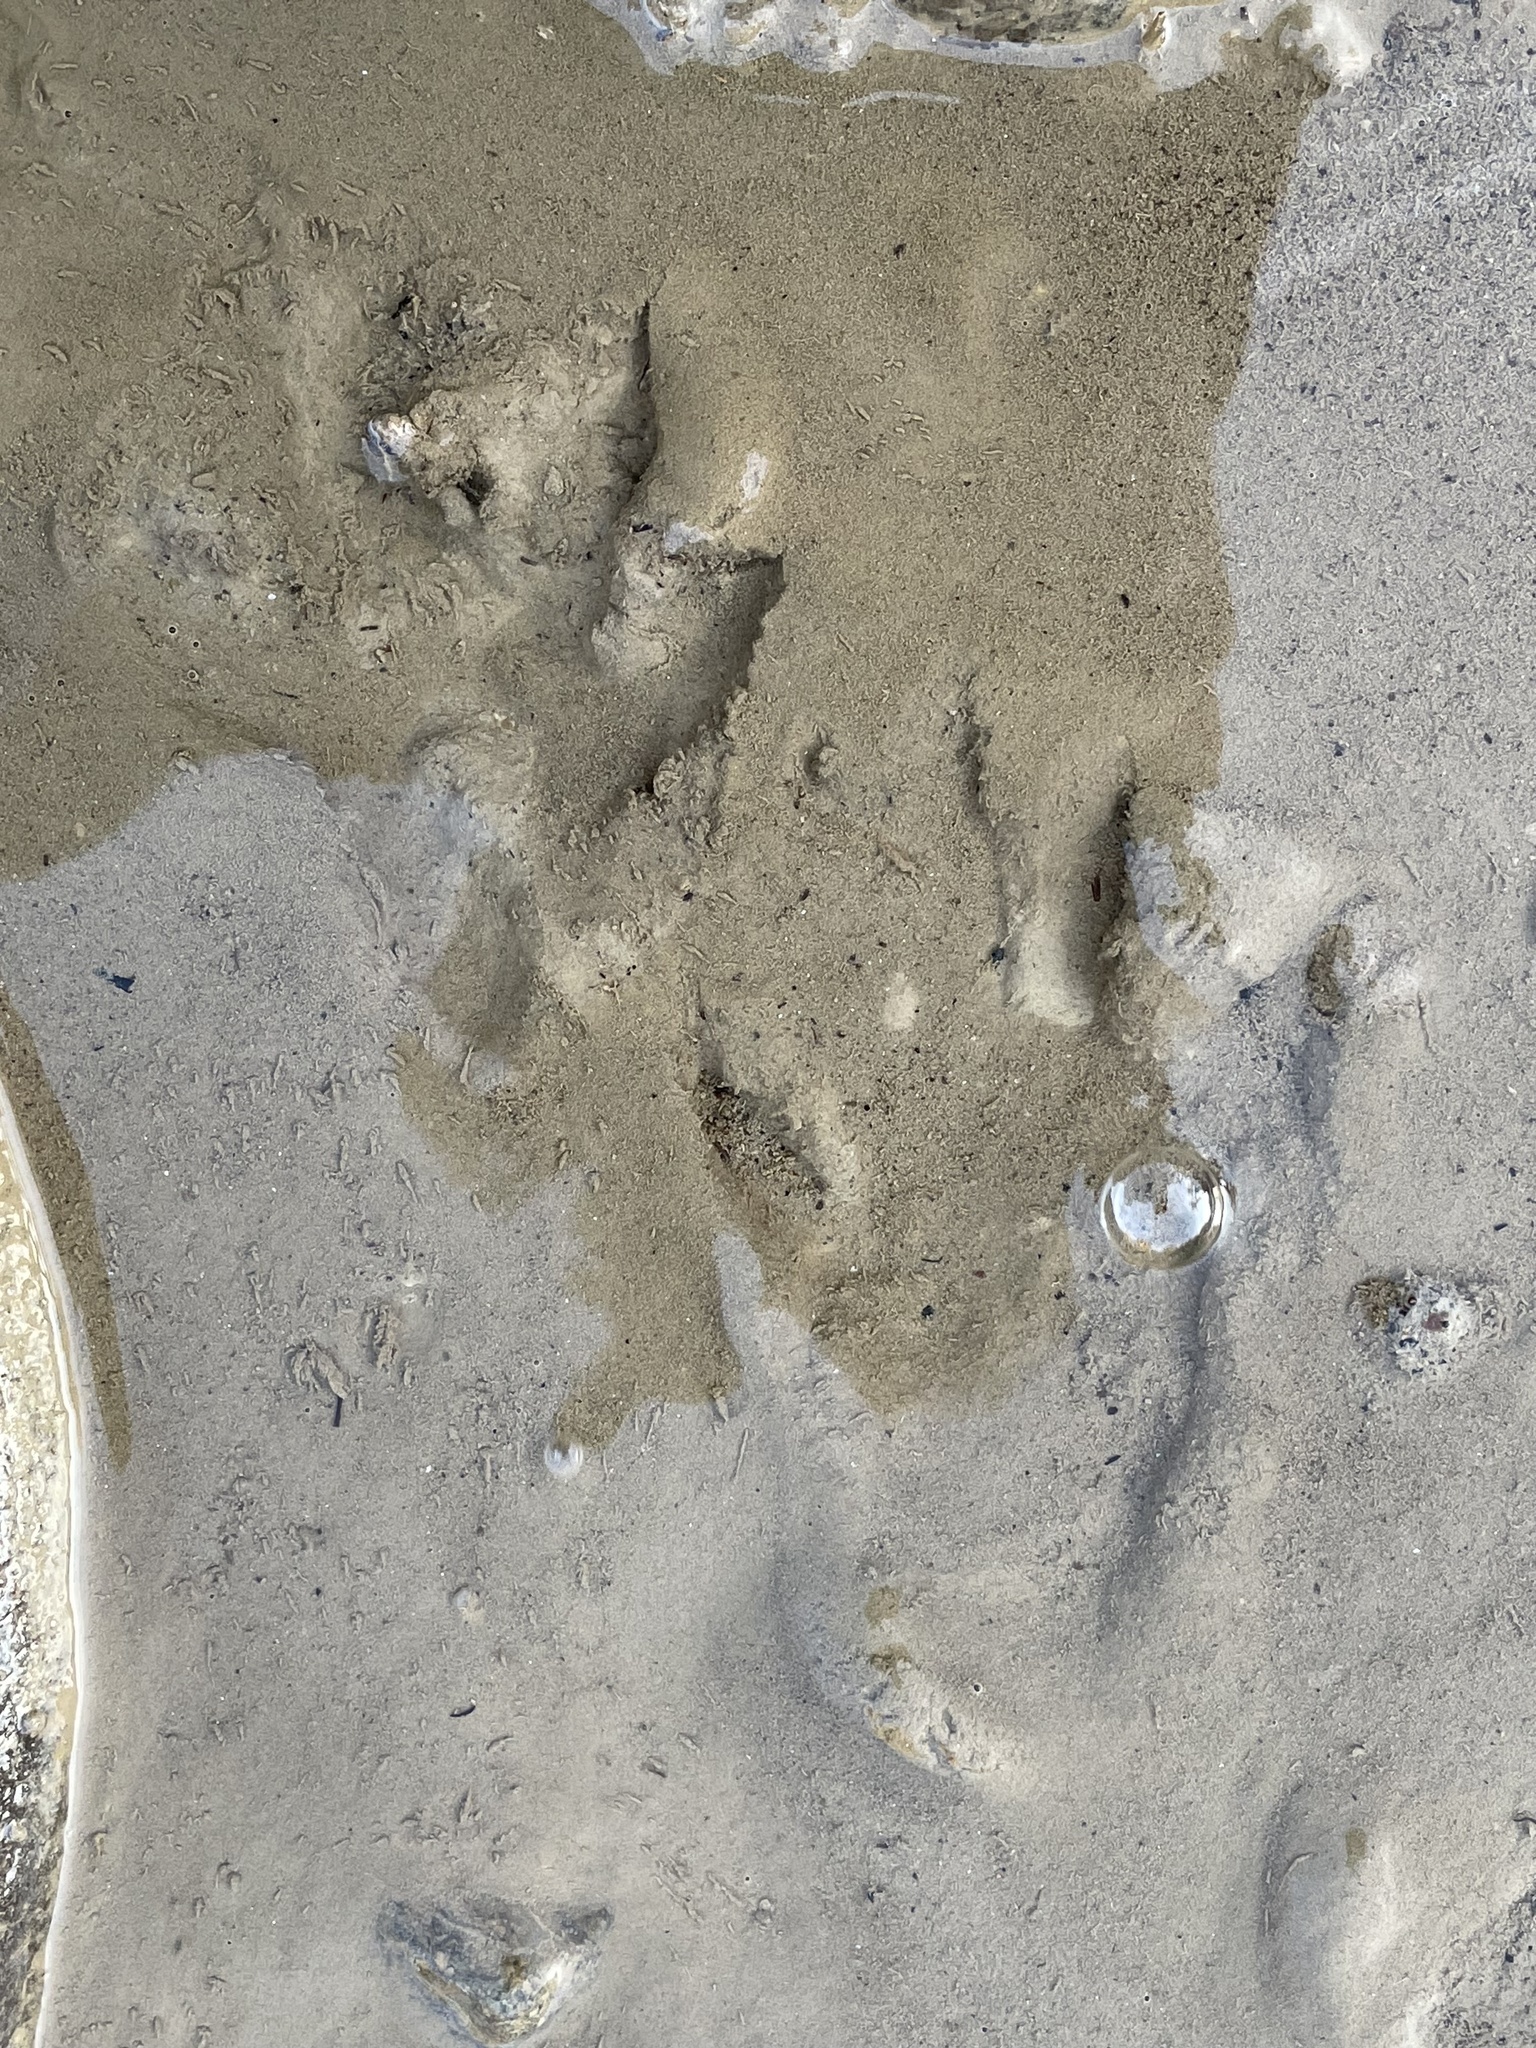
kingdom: Animalia
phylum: Chordata
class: Mammalia
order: Carnivora
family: Procyonidae
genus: Procyon
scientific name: Procyon lotor
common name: Raccoon
